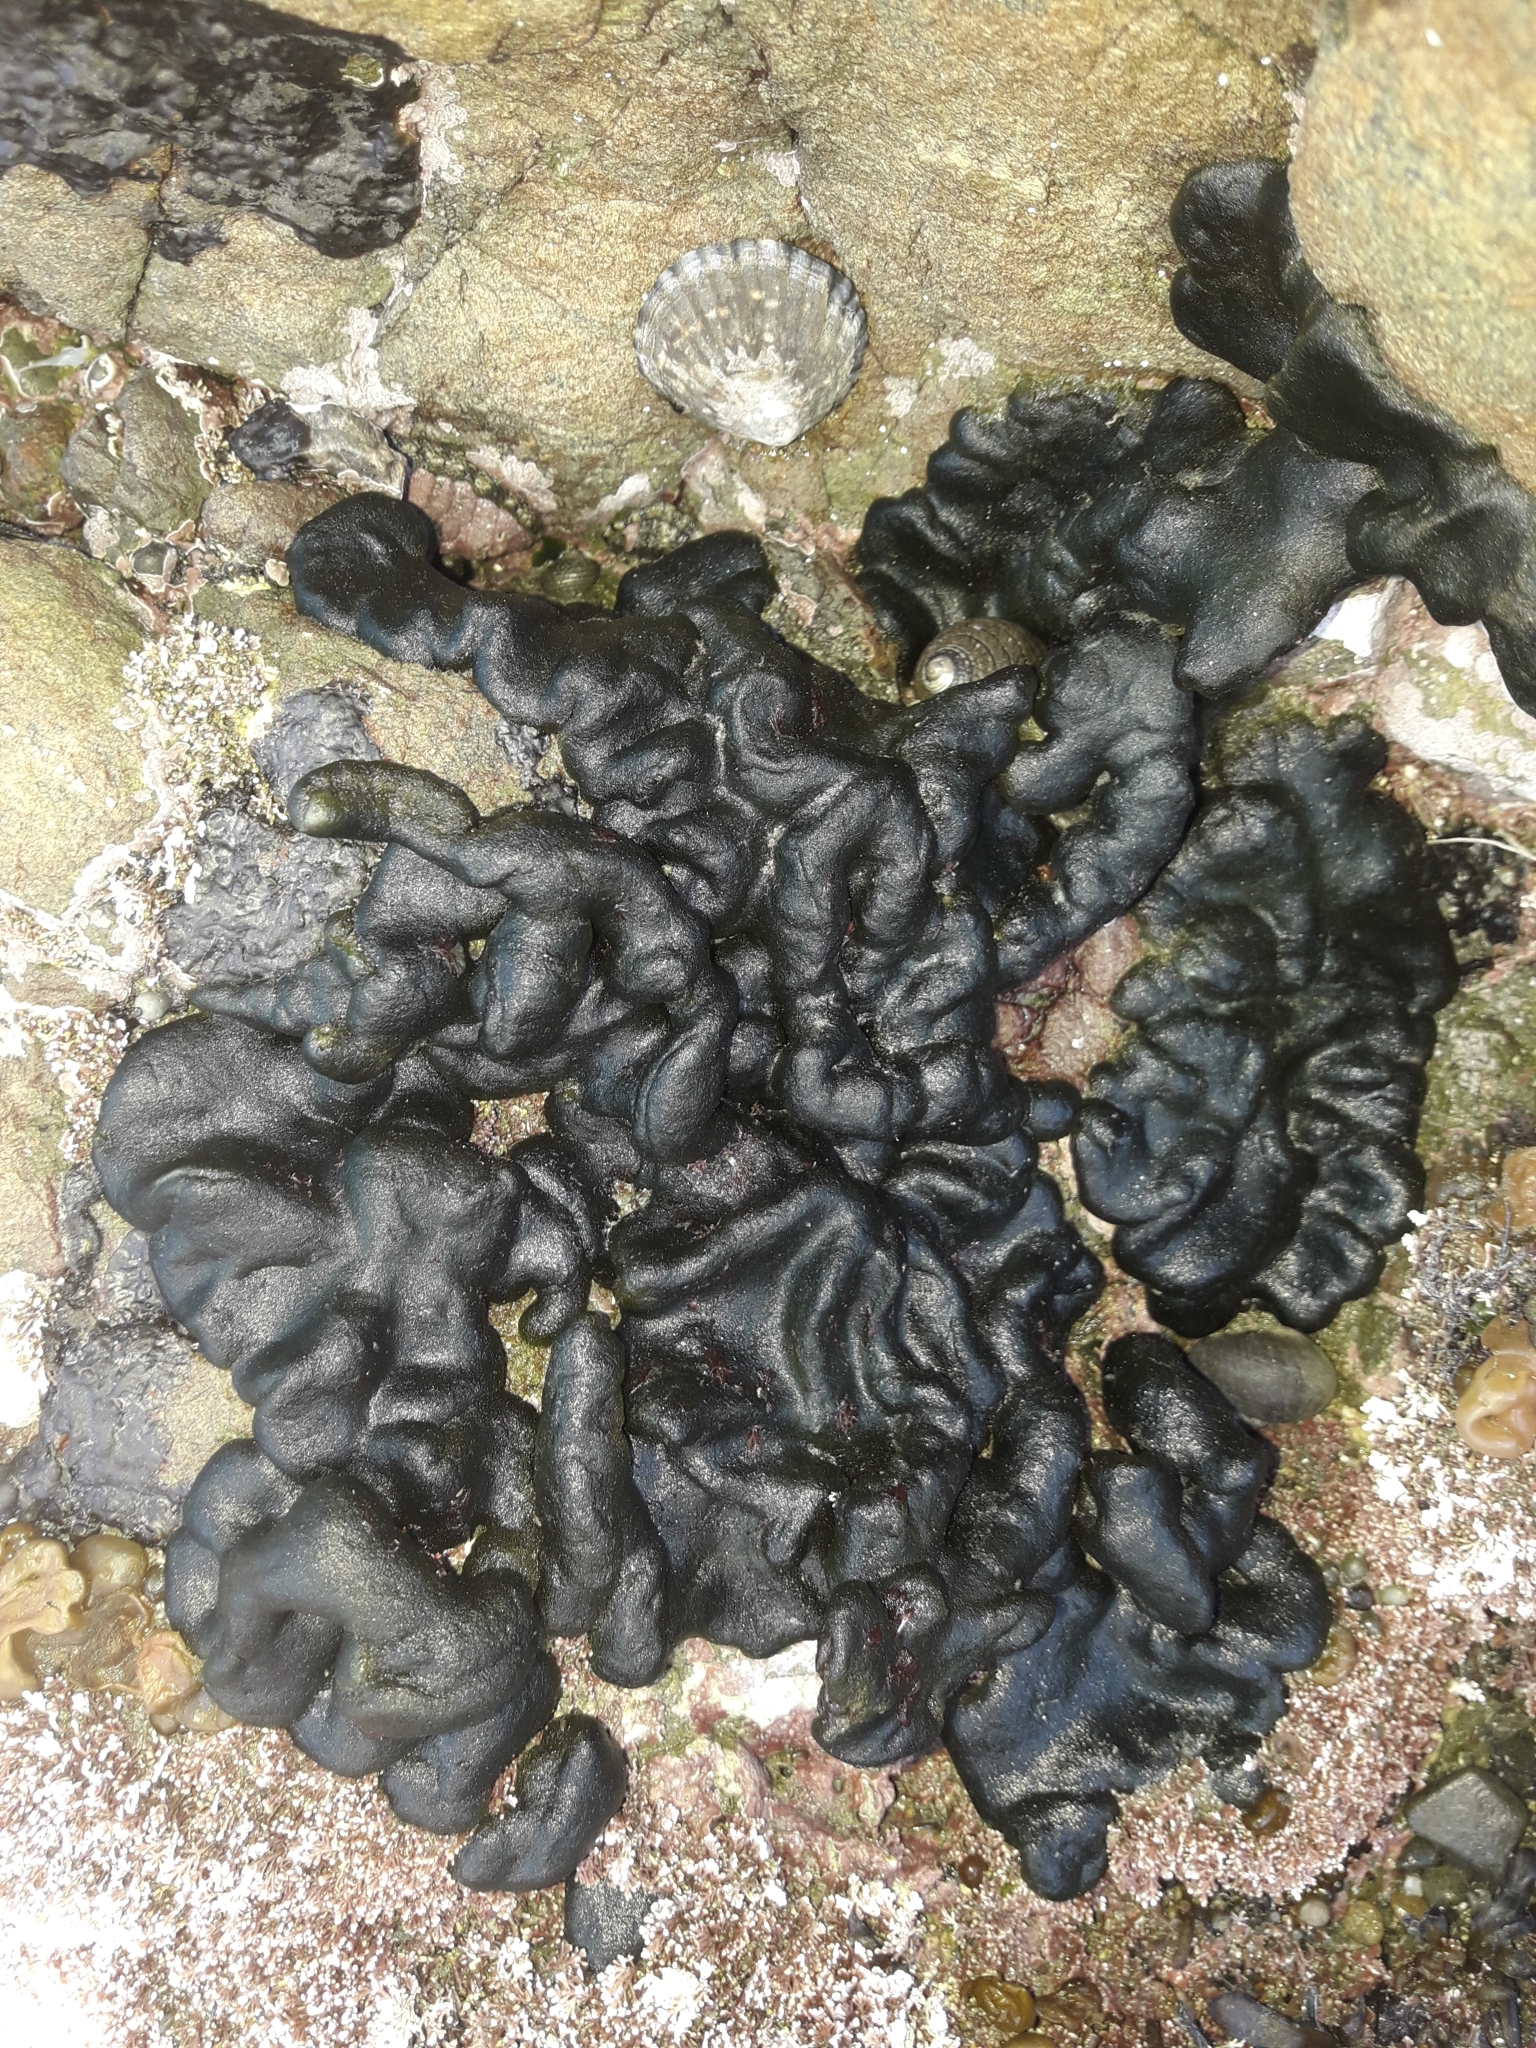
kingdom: Plantae
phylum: Chlorophyta
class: Ulvophyceae
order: Bryopsidales
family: Codiaceae
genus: Codium
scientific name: Codium convolutum
